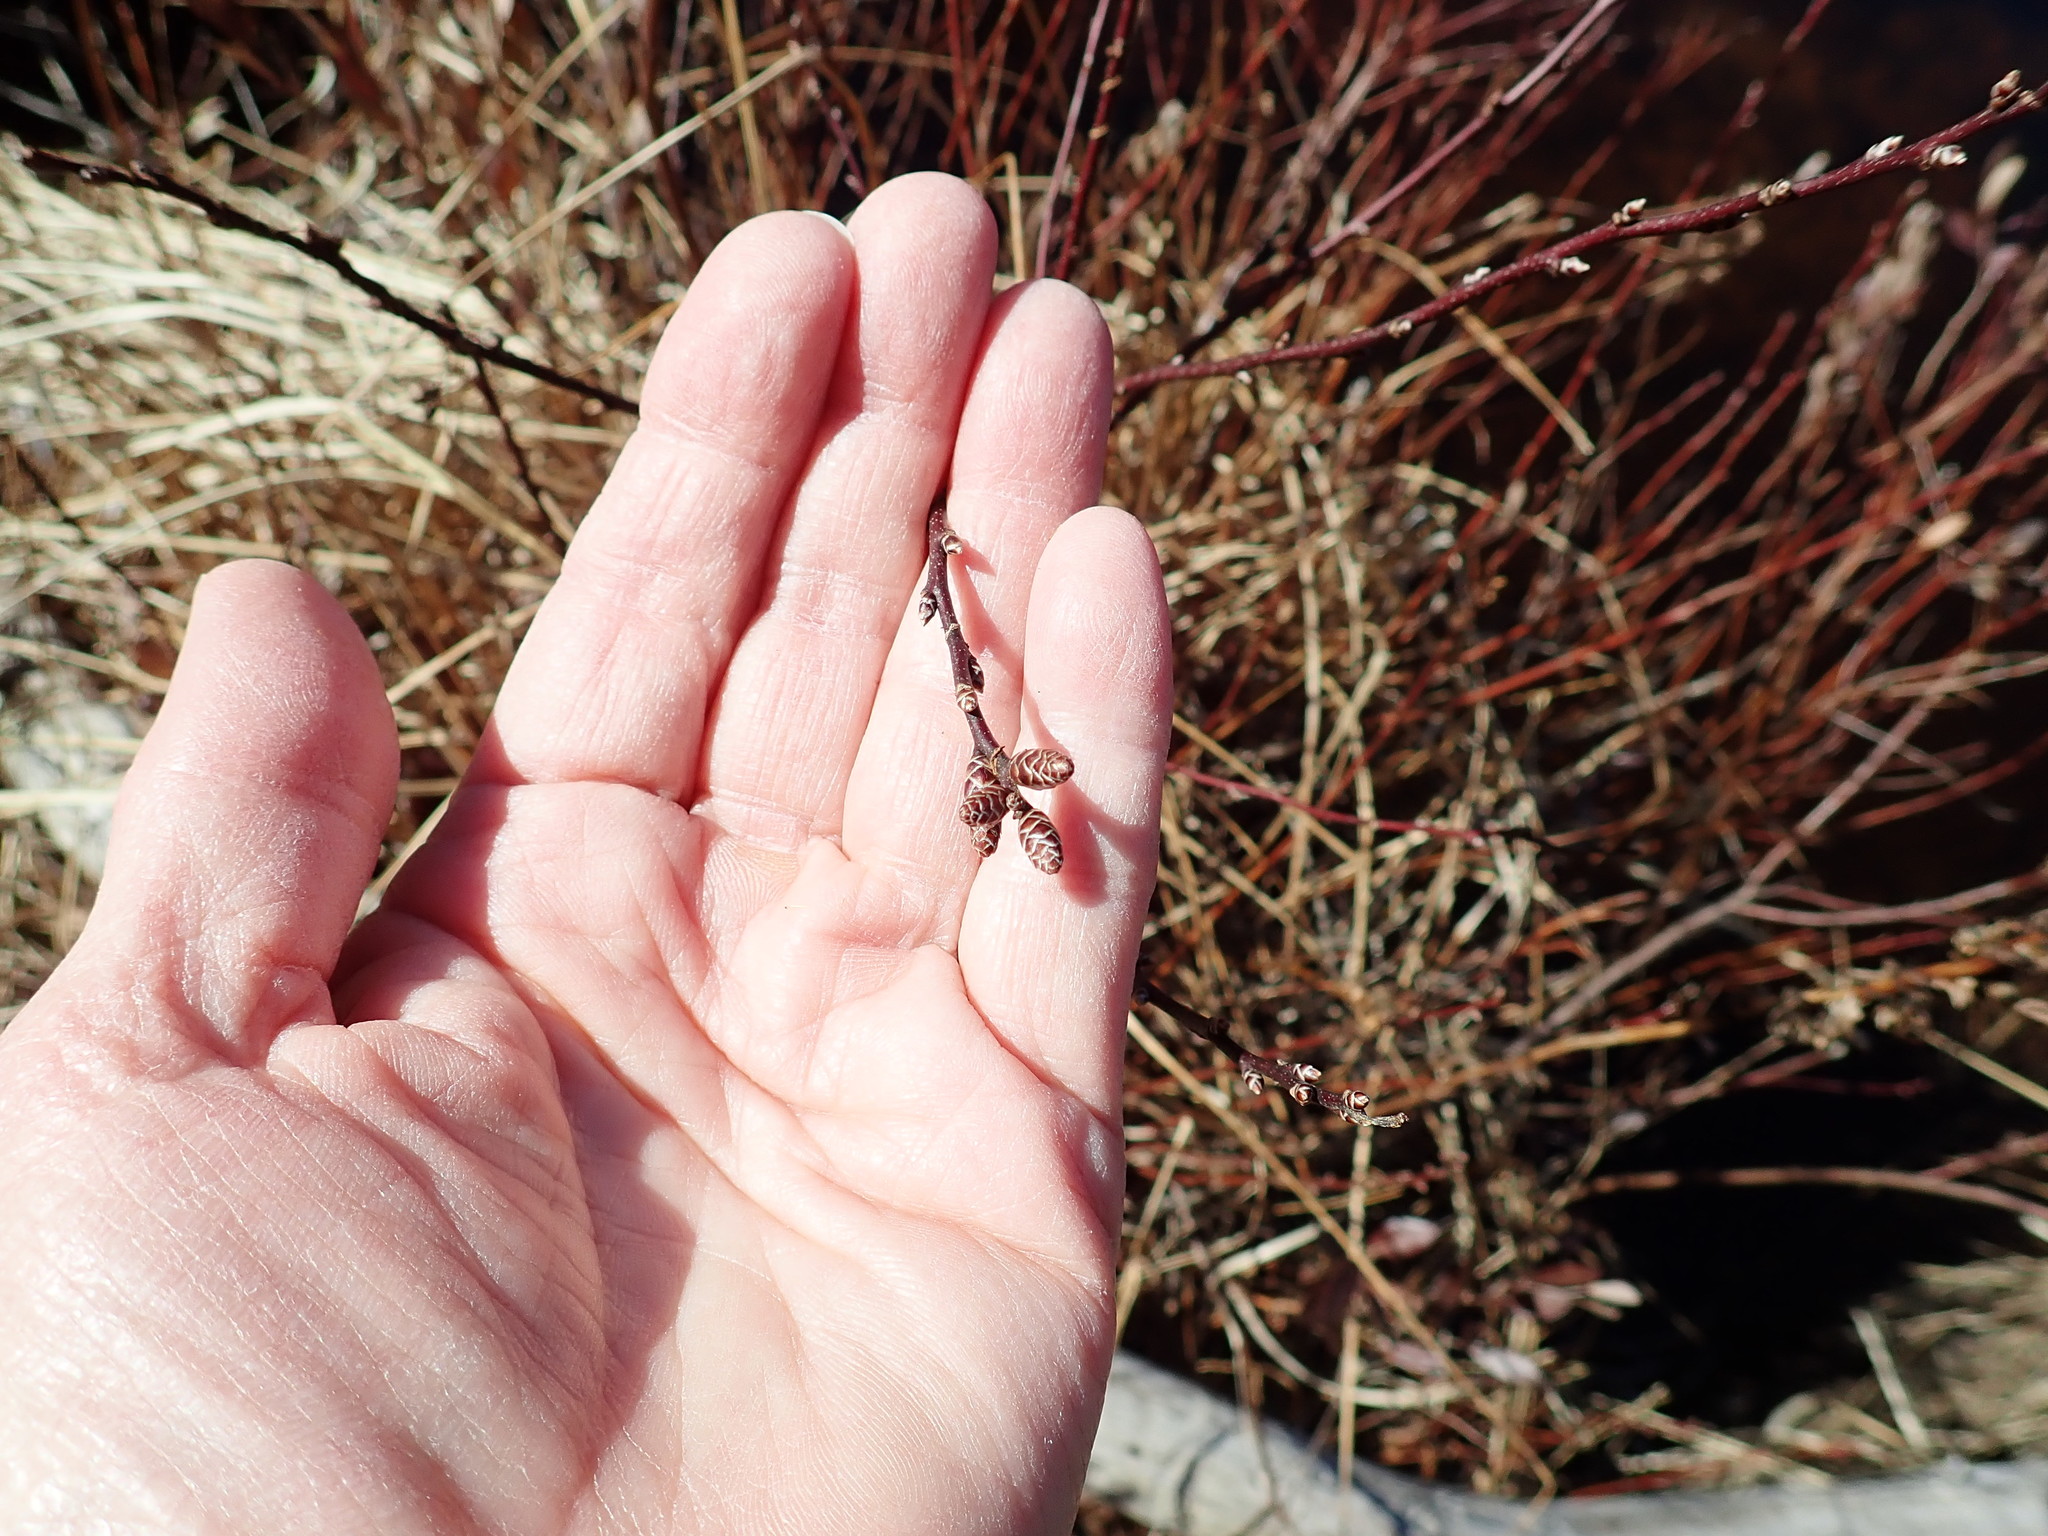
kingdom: Plantae
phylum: Tracheophyta
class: Magnoliopsida
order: Fagales
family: Myricaceae
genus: Myrica
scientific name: Myrica gale
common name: Sweet gale
